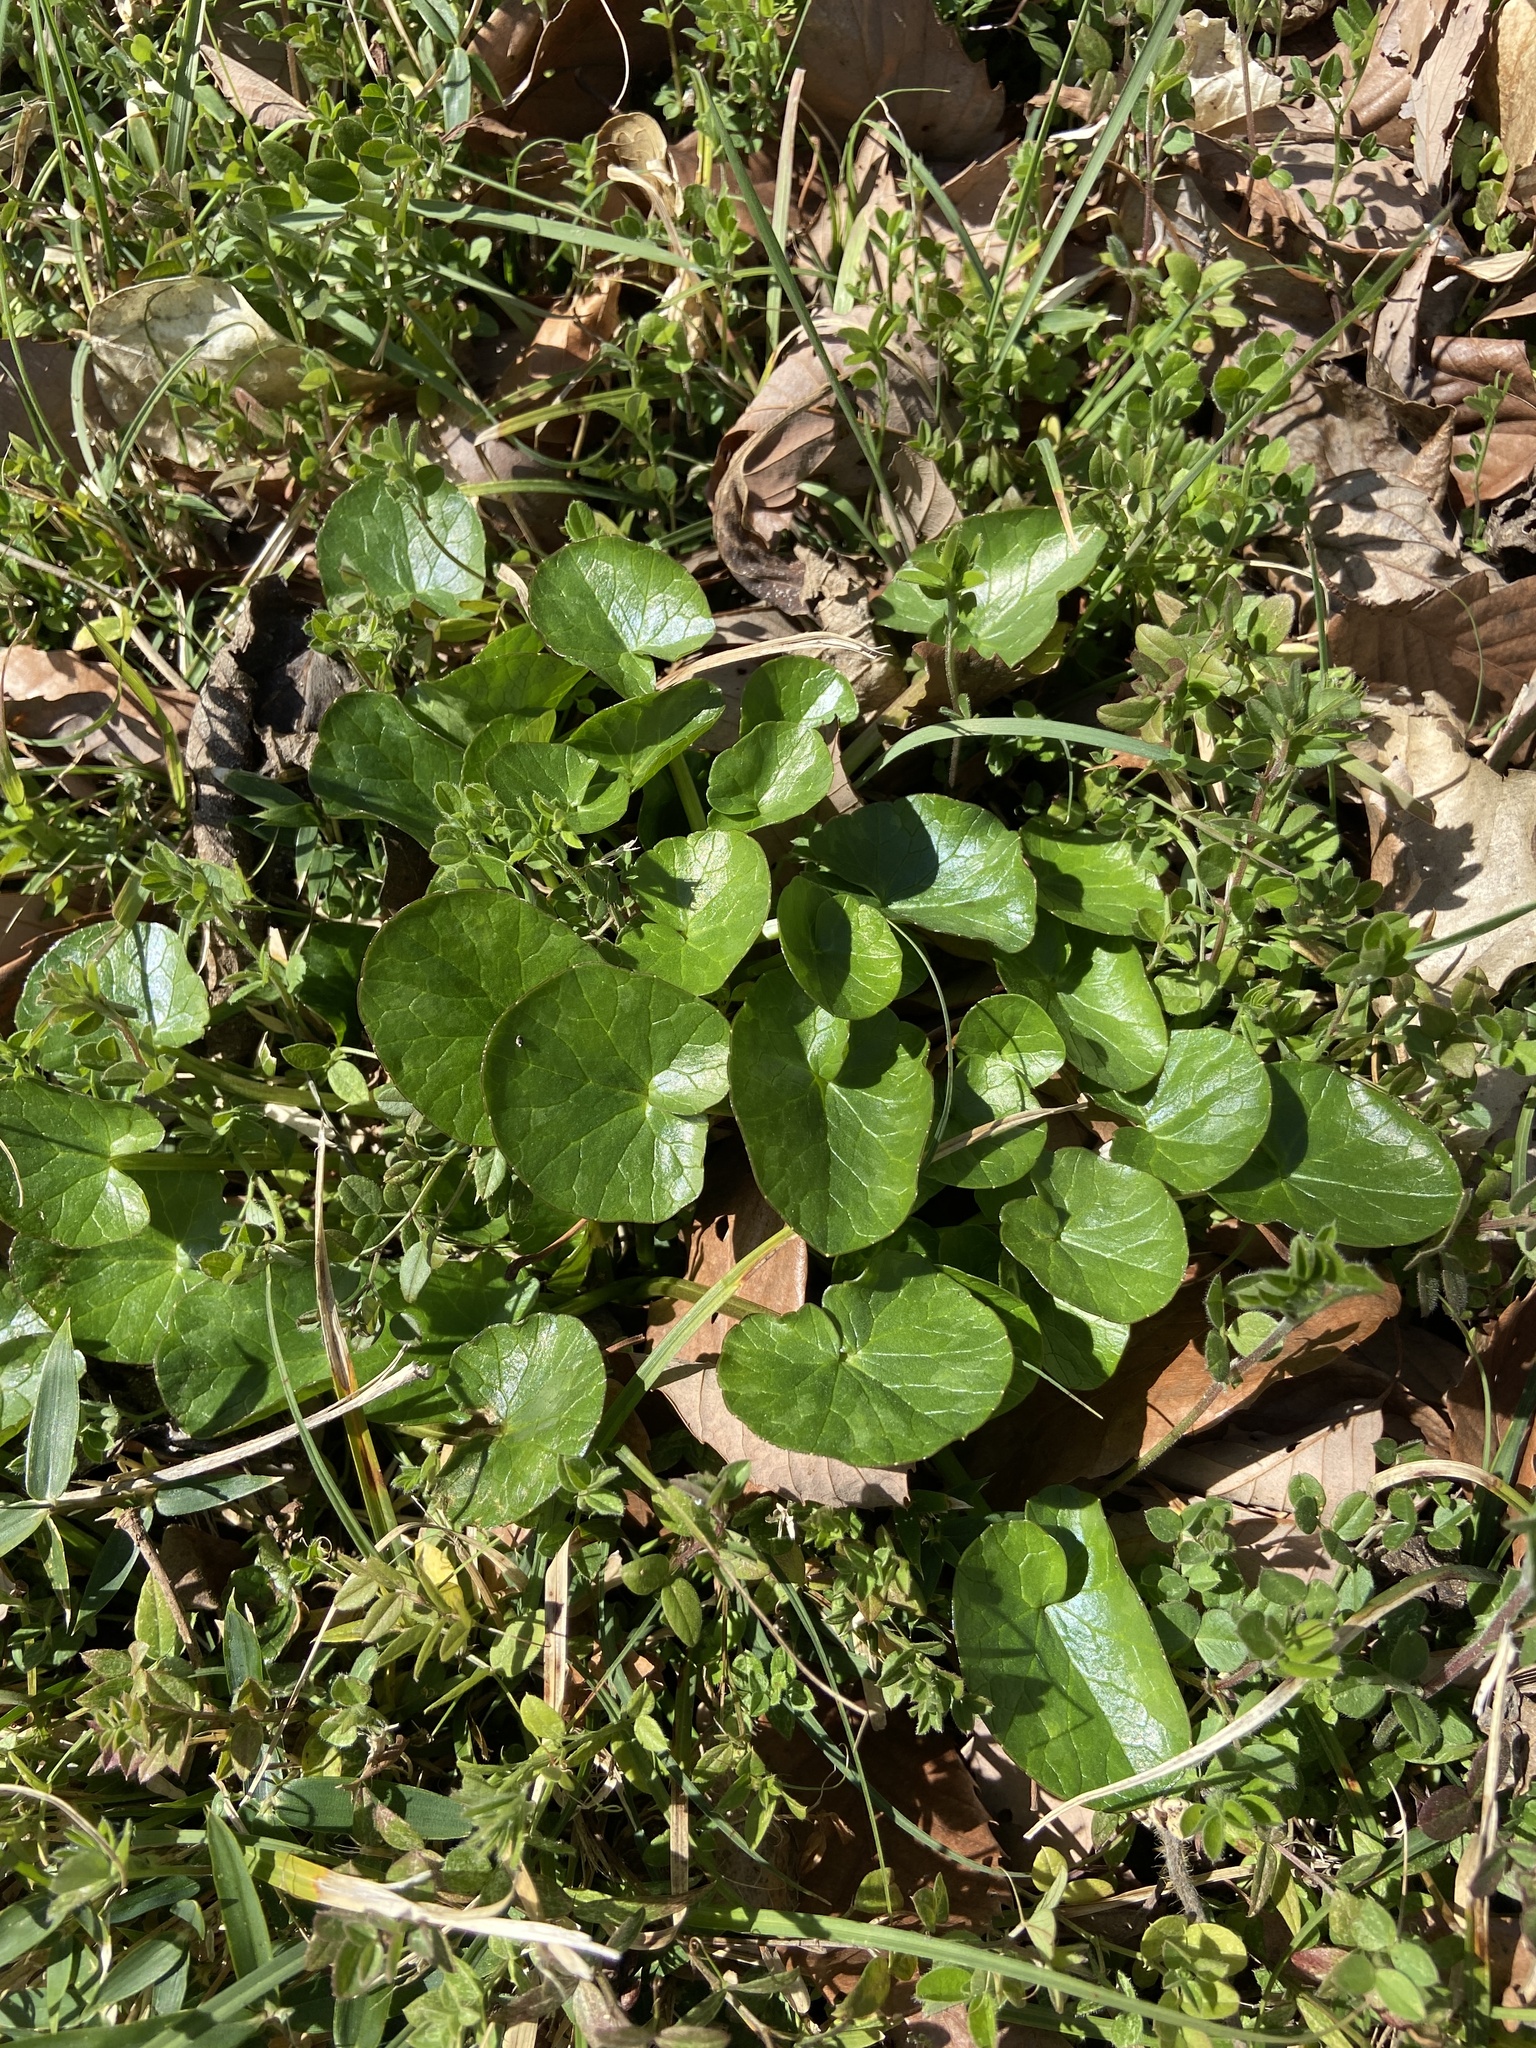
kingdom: Plantae
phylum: Tracheophyta
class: Magnoliopsida
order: Ranunculales
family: Ranunculaceae
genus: Ficaria
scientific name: Ficaria verna
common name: Lesser celandine
